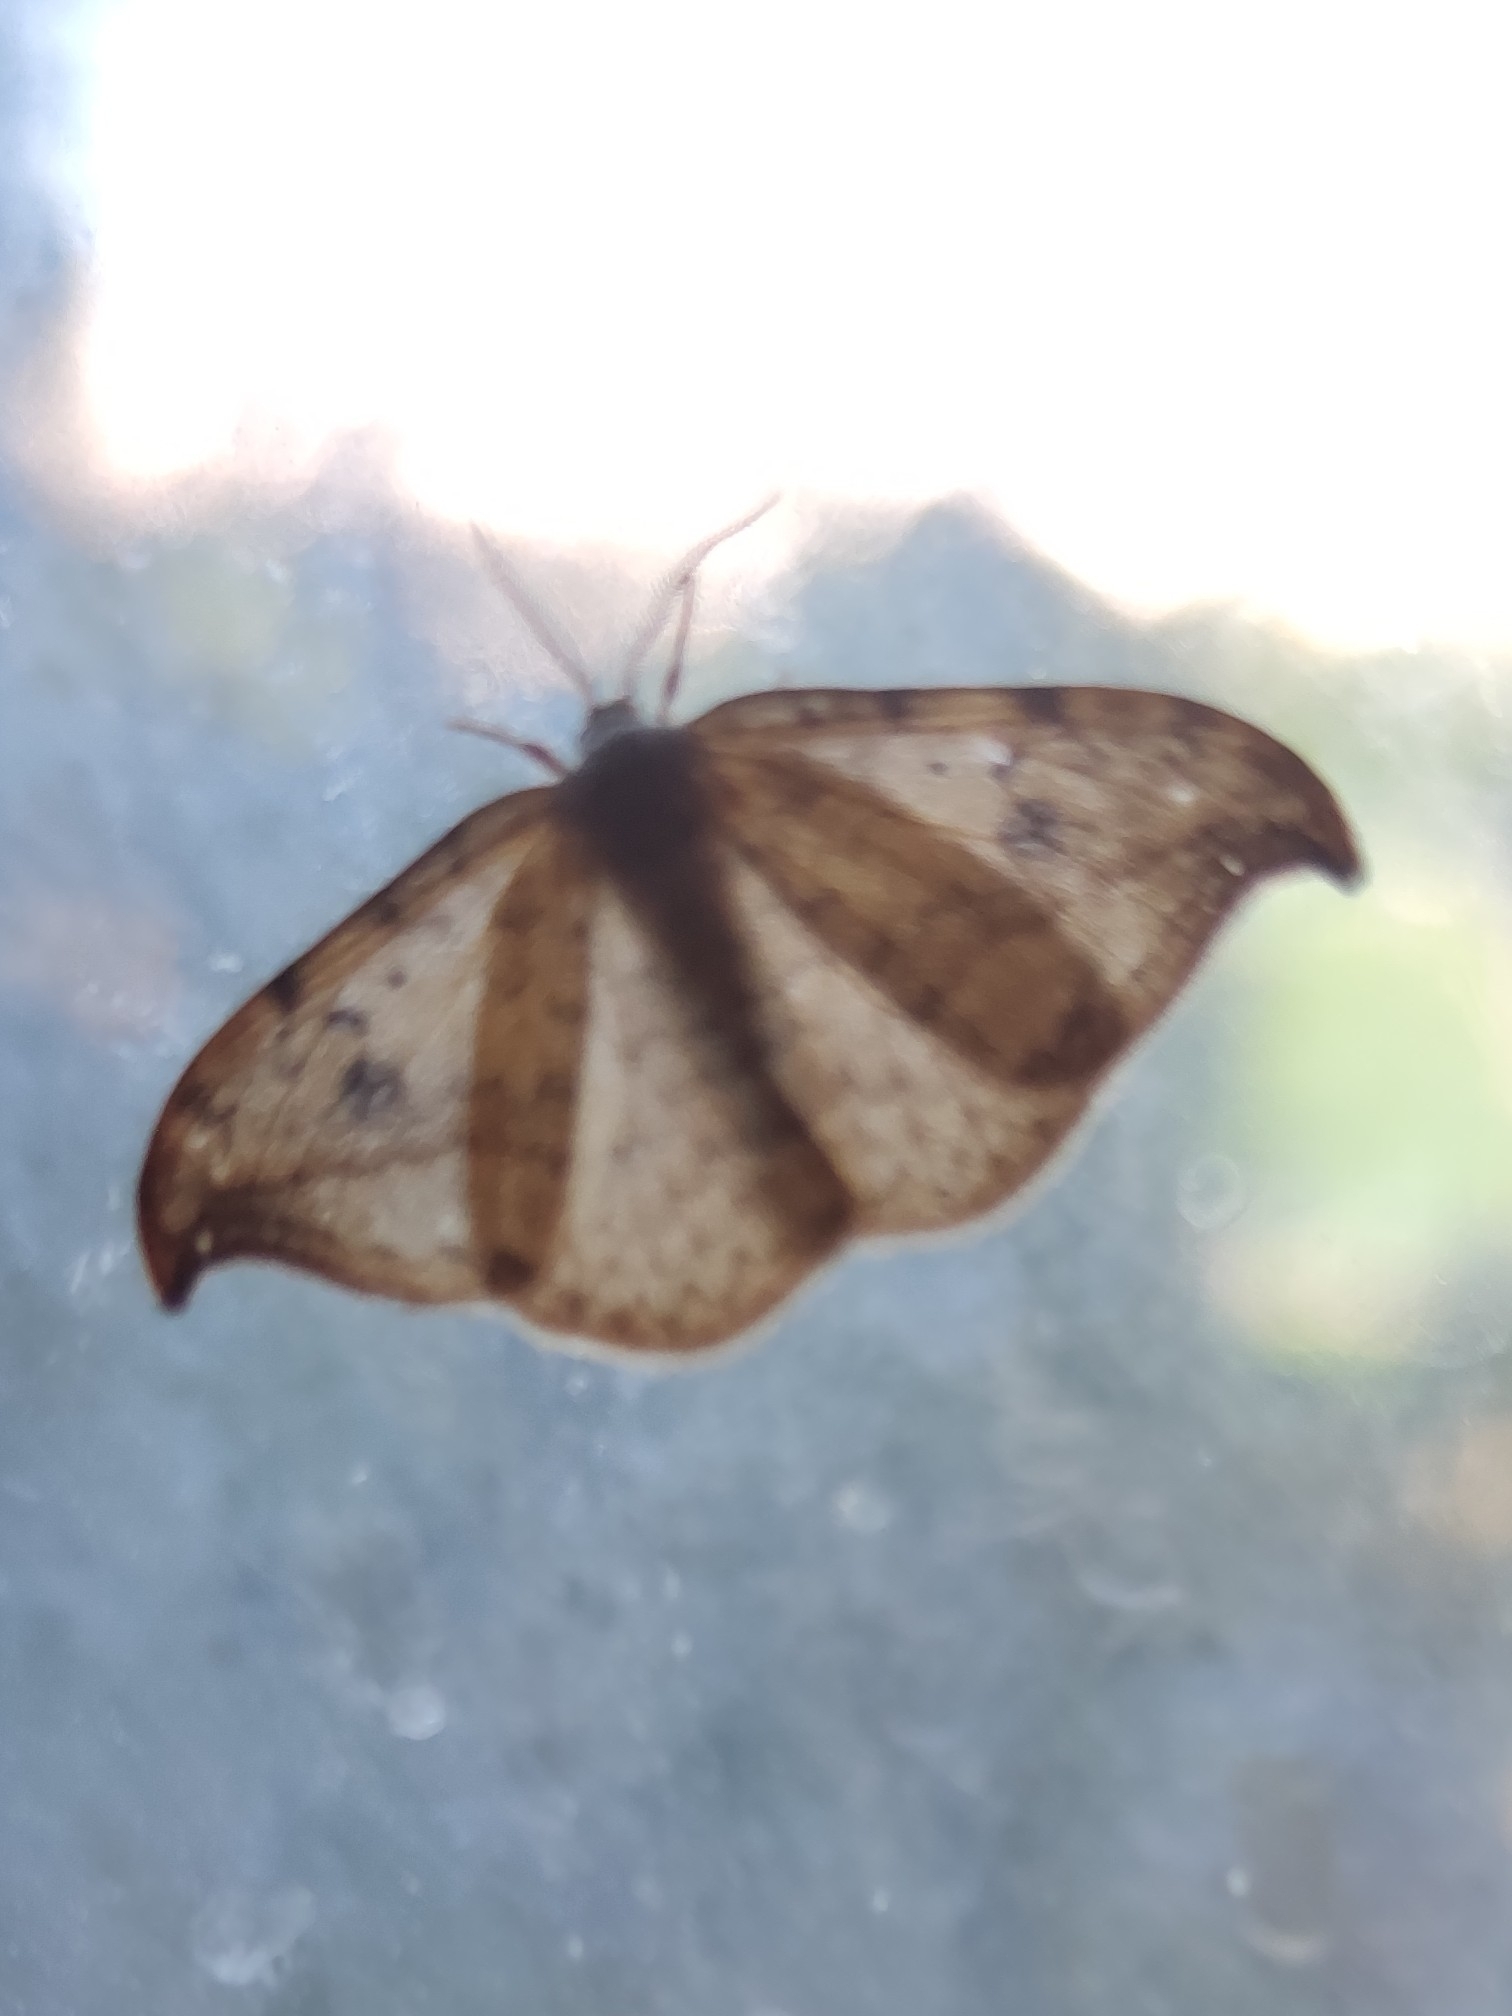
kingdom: Animalia
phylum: Arthropoda
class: Insecta
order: Lepidoptera
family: Drepanidae
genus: Drepana
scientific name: Drepana falcataria
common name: Pebble hook-tip
